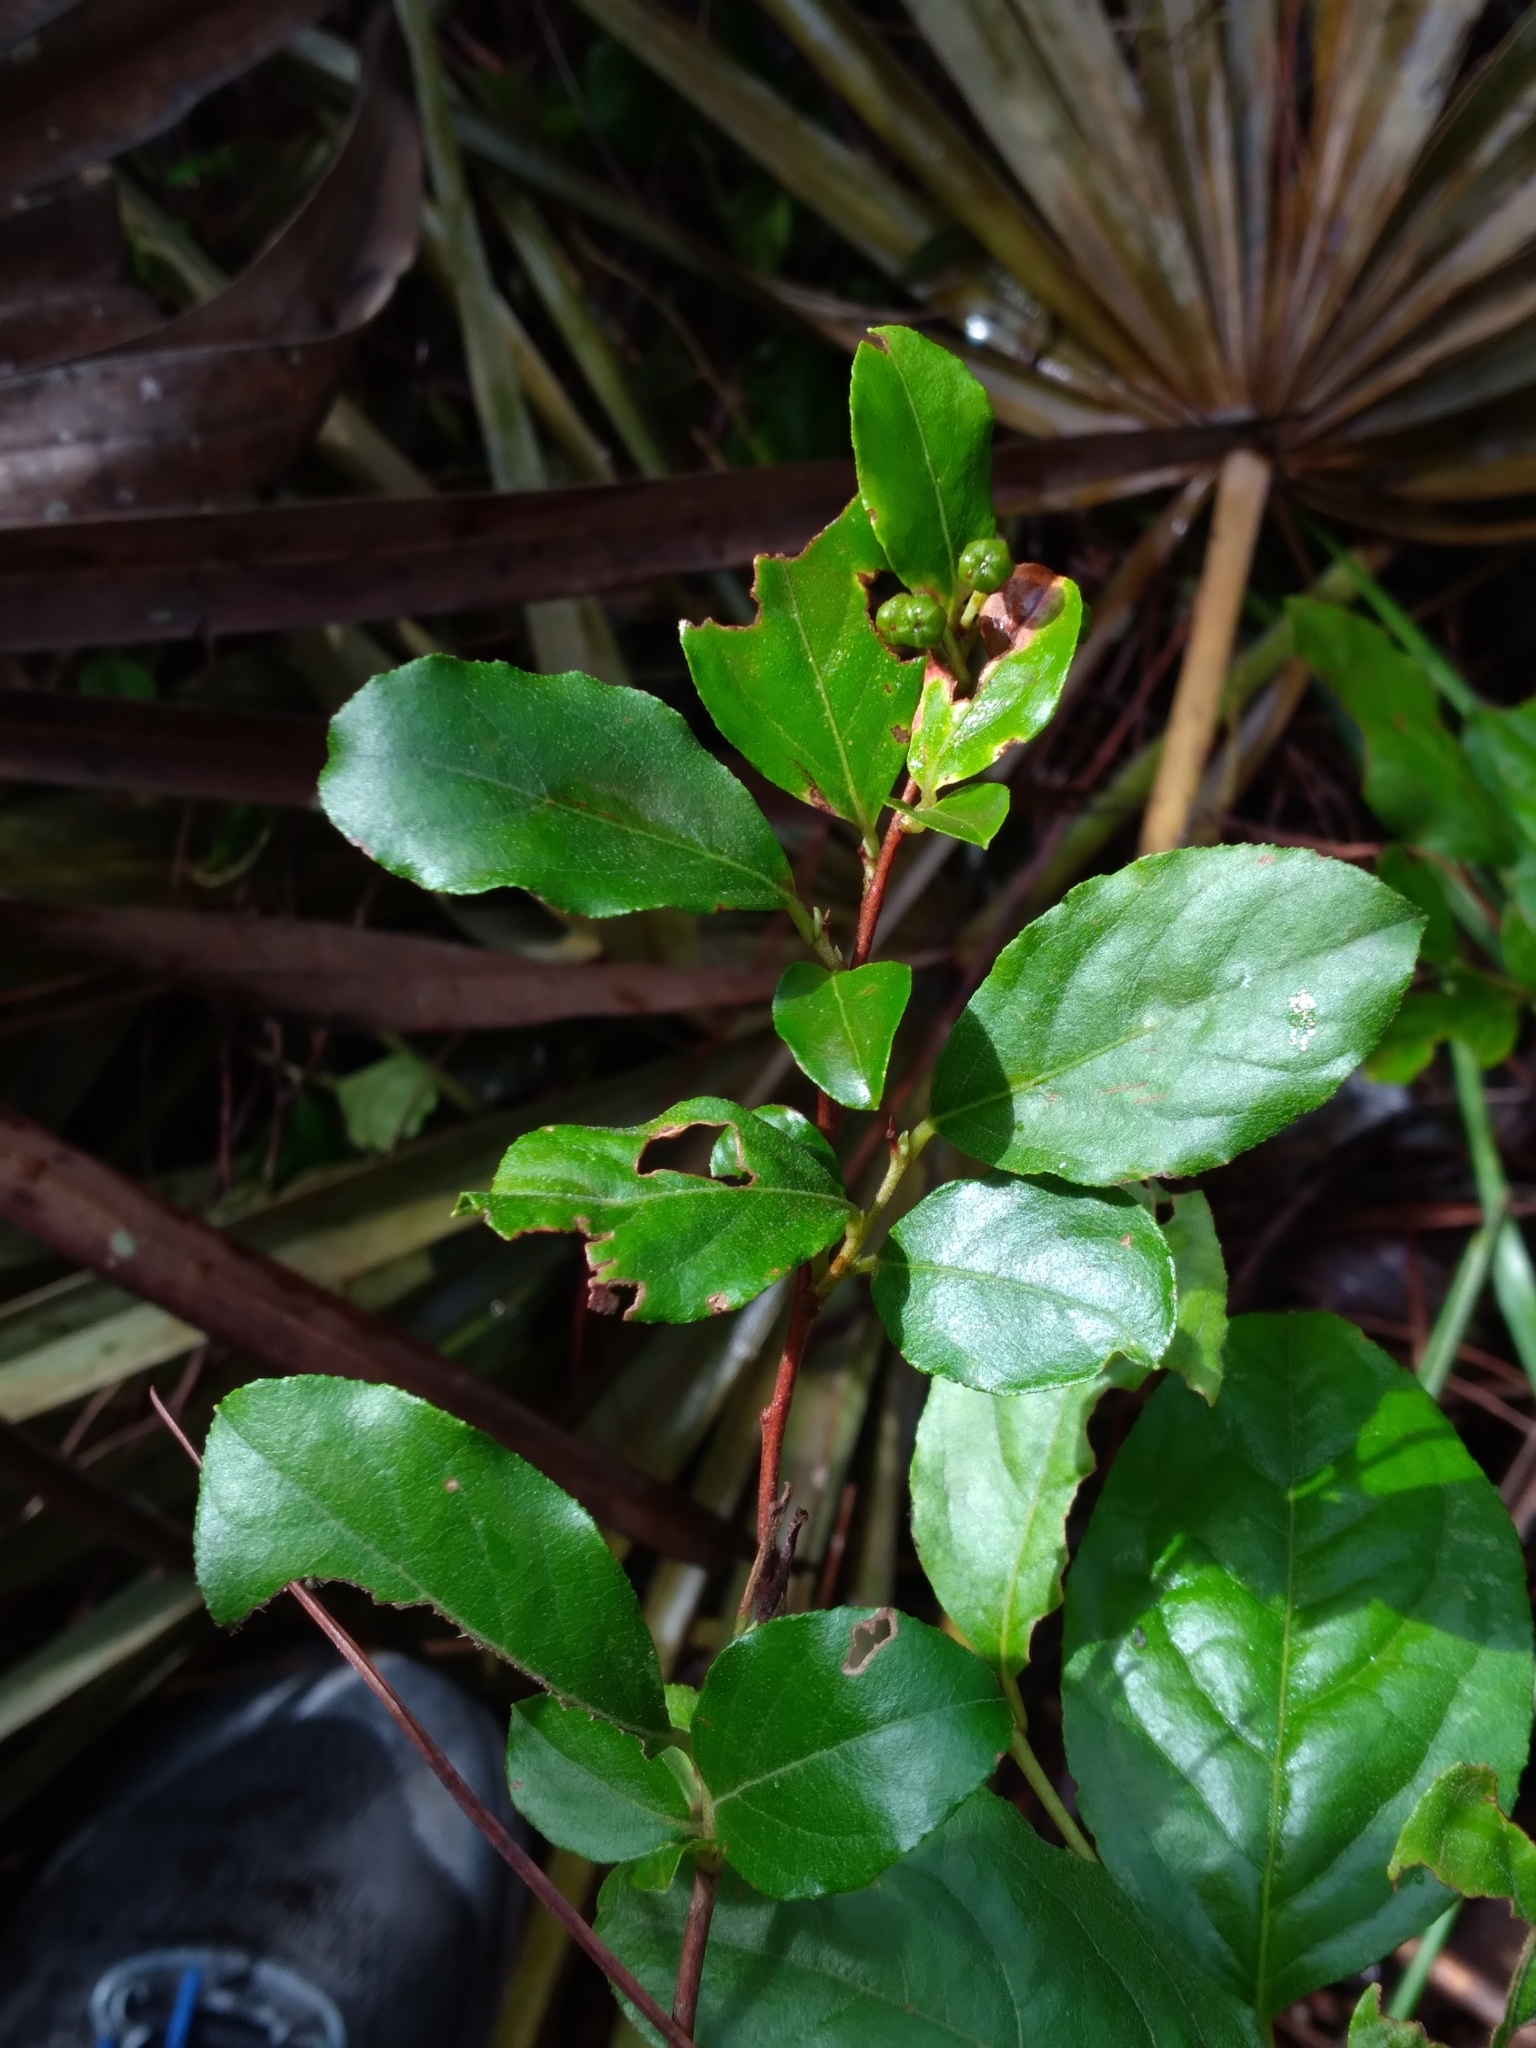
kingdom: Plantae
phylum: Tracheophyta
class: Magnoliopsida
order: Ericales
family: Ericaceae
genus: Lyonia
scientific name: Lyonia ligustrina
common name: Maleberry
